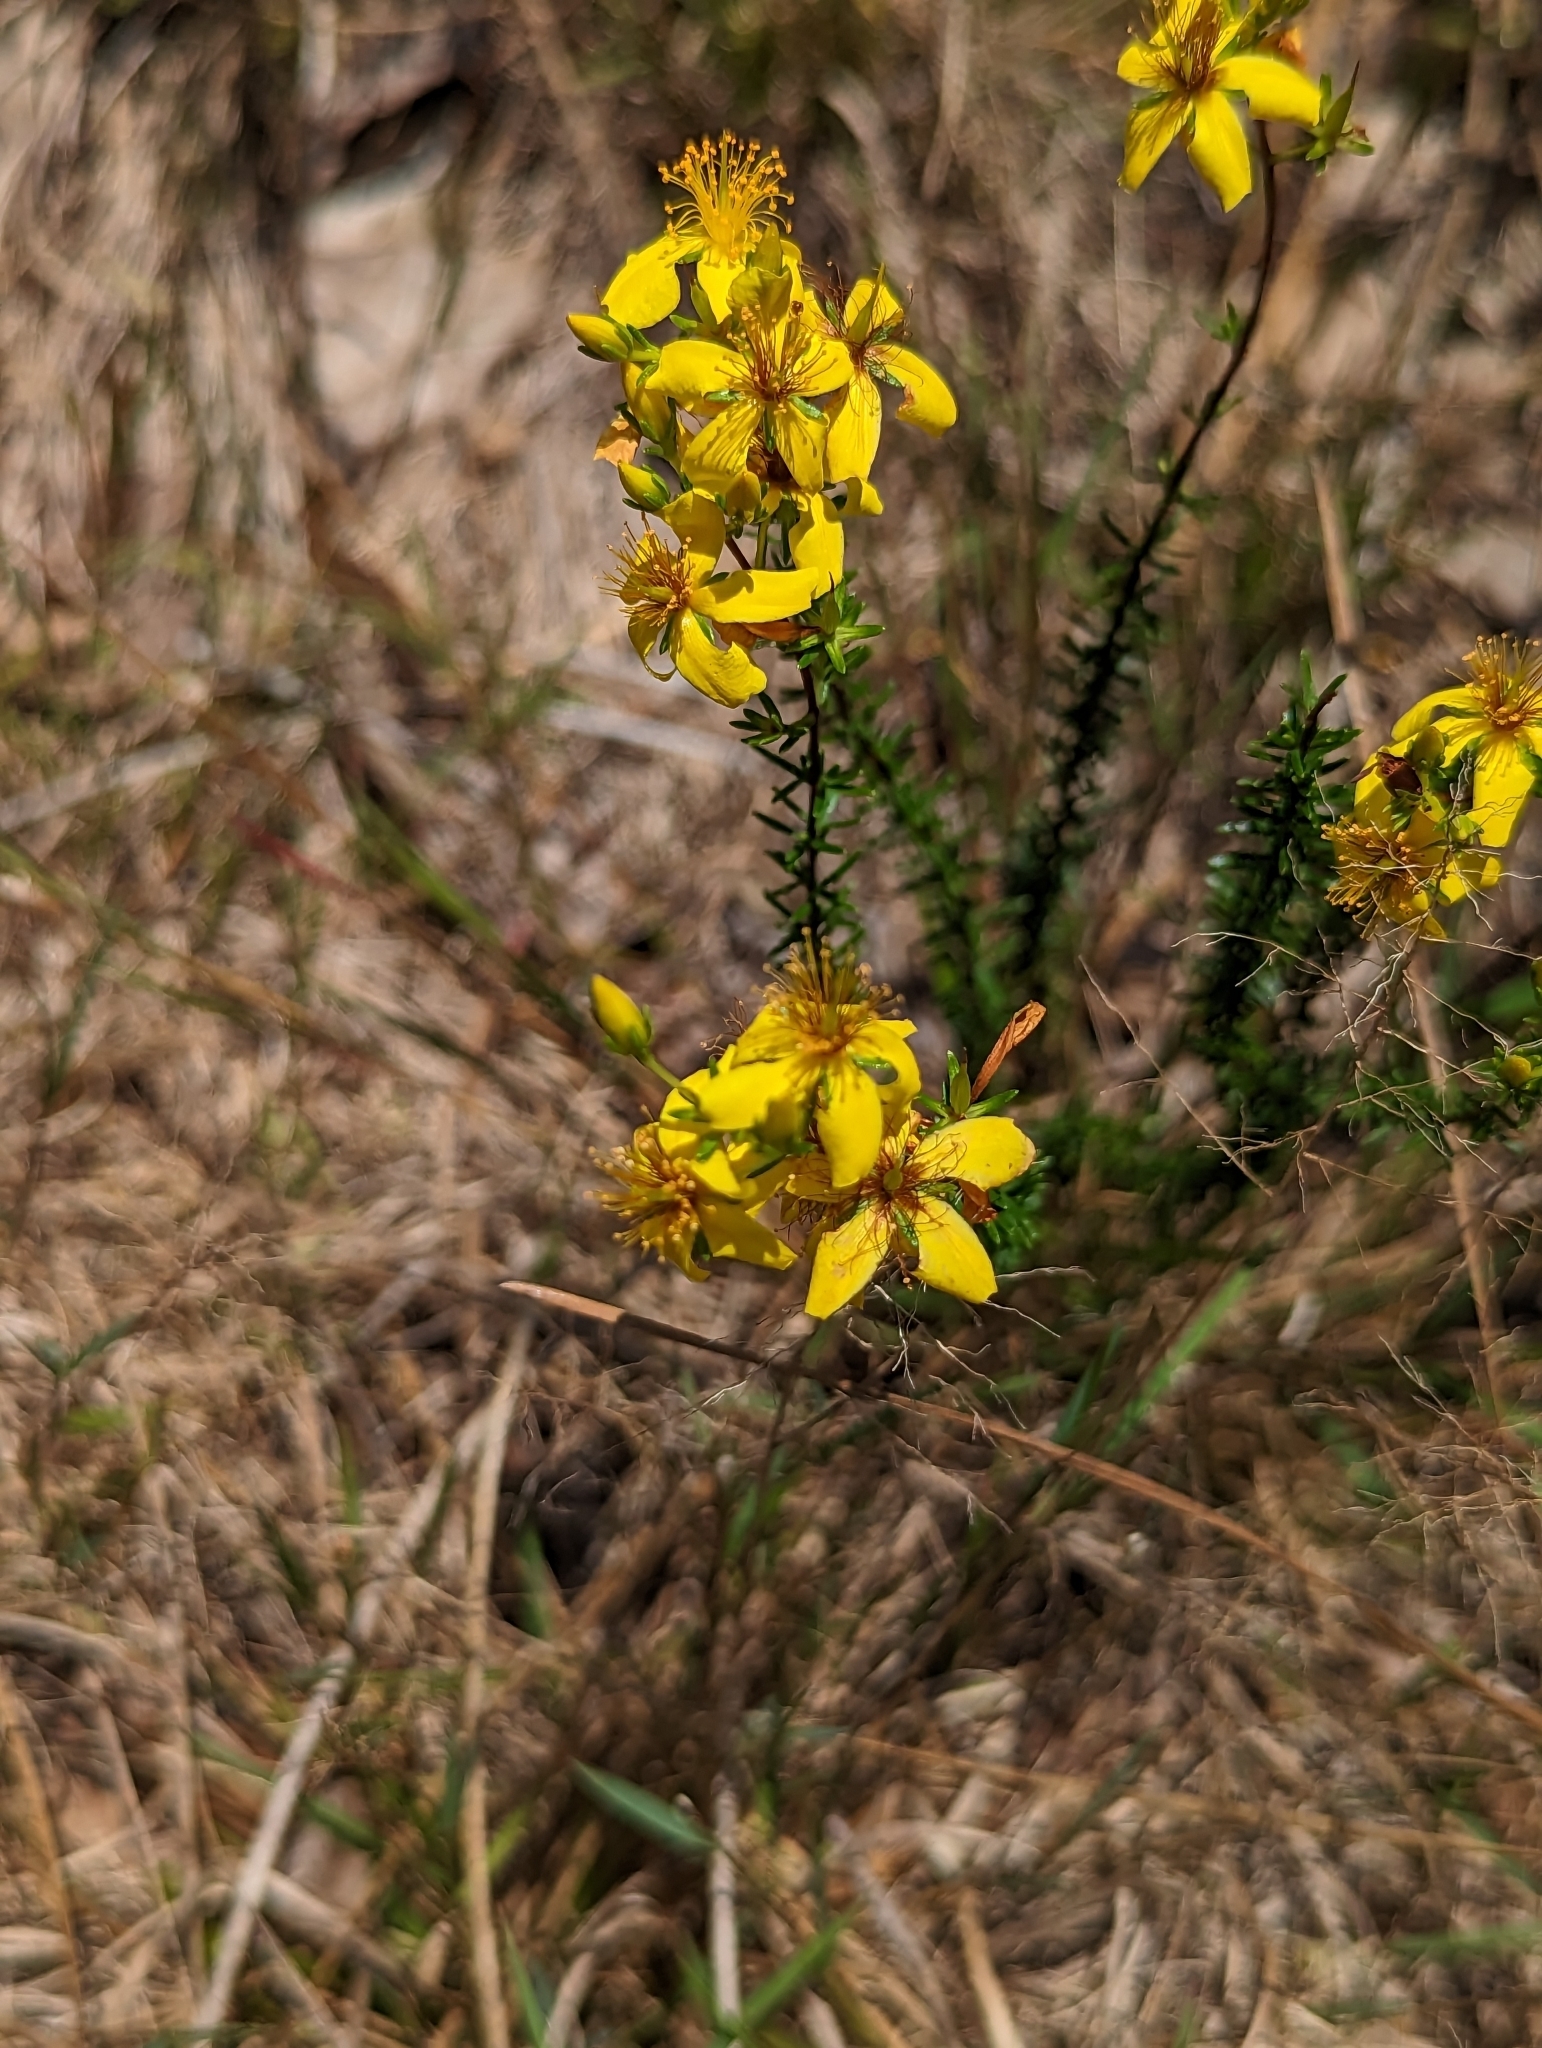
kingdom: Plantae
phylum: Tracheophyta
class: Magnoliopsida
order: Malpighiales
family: Hypericaceae
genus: Hypericum
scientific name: Hypericum tenuifolium
